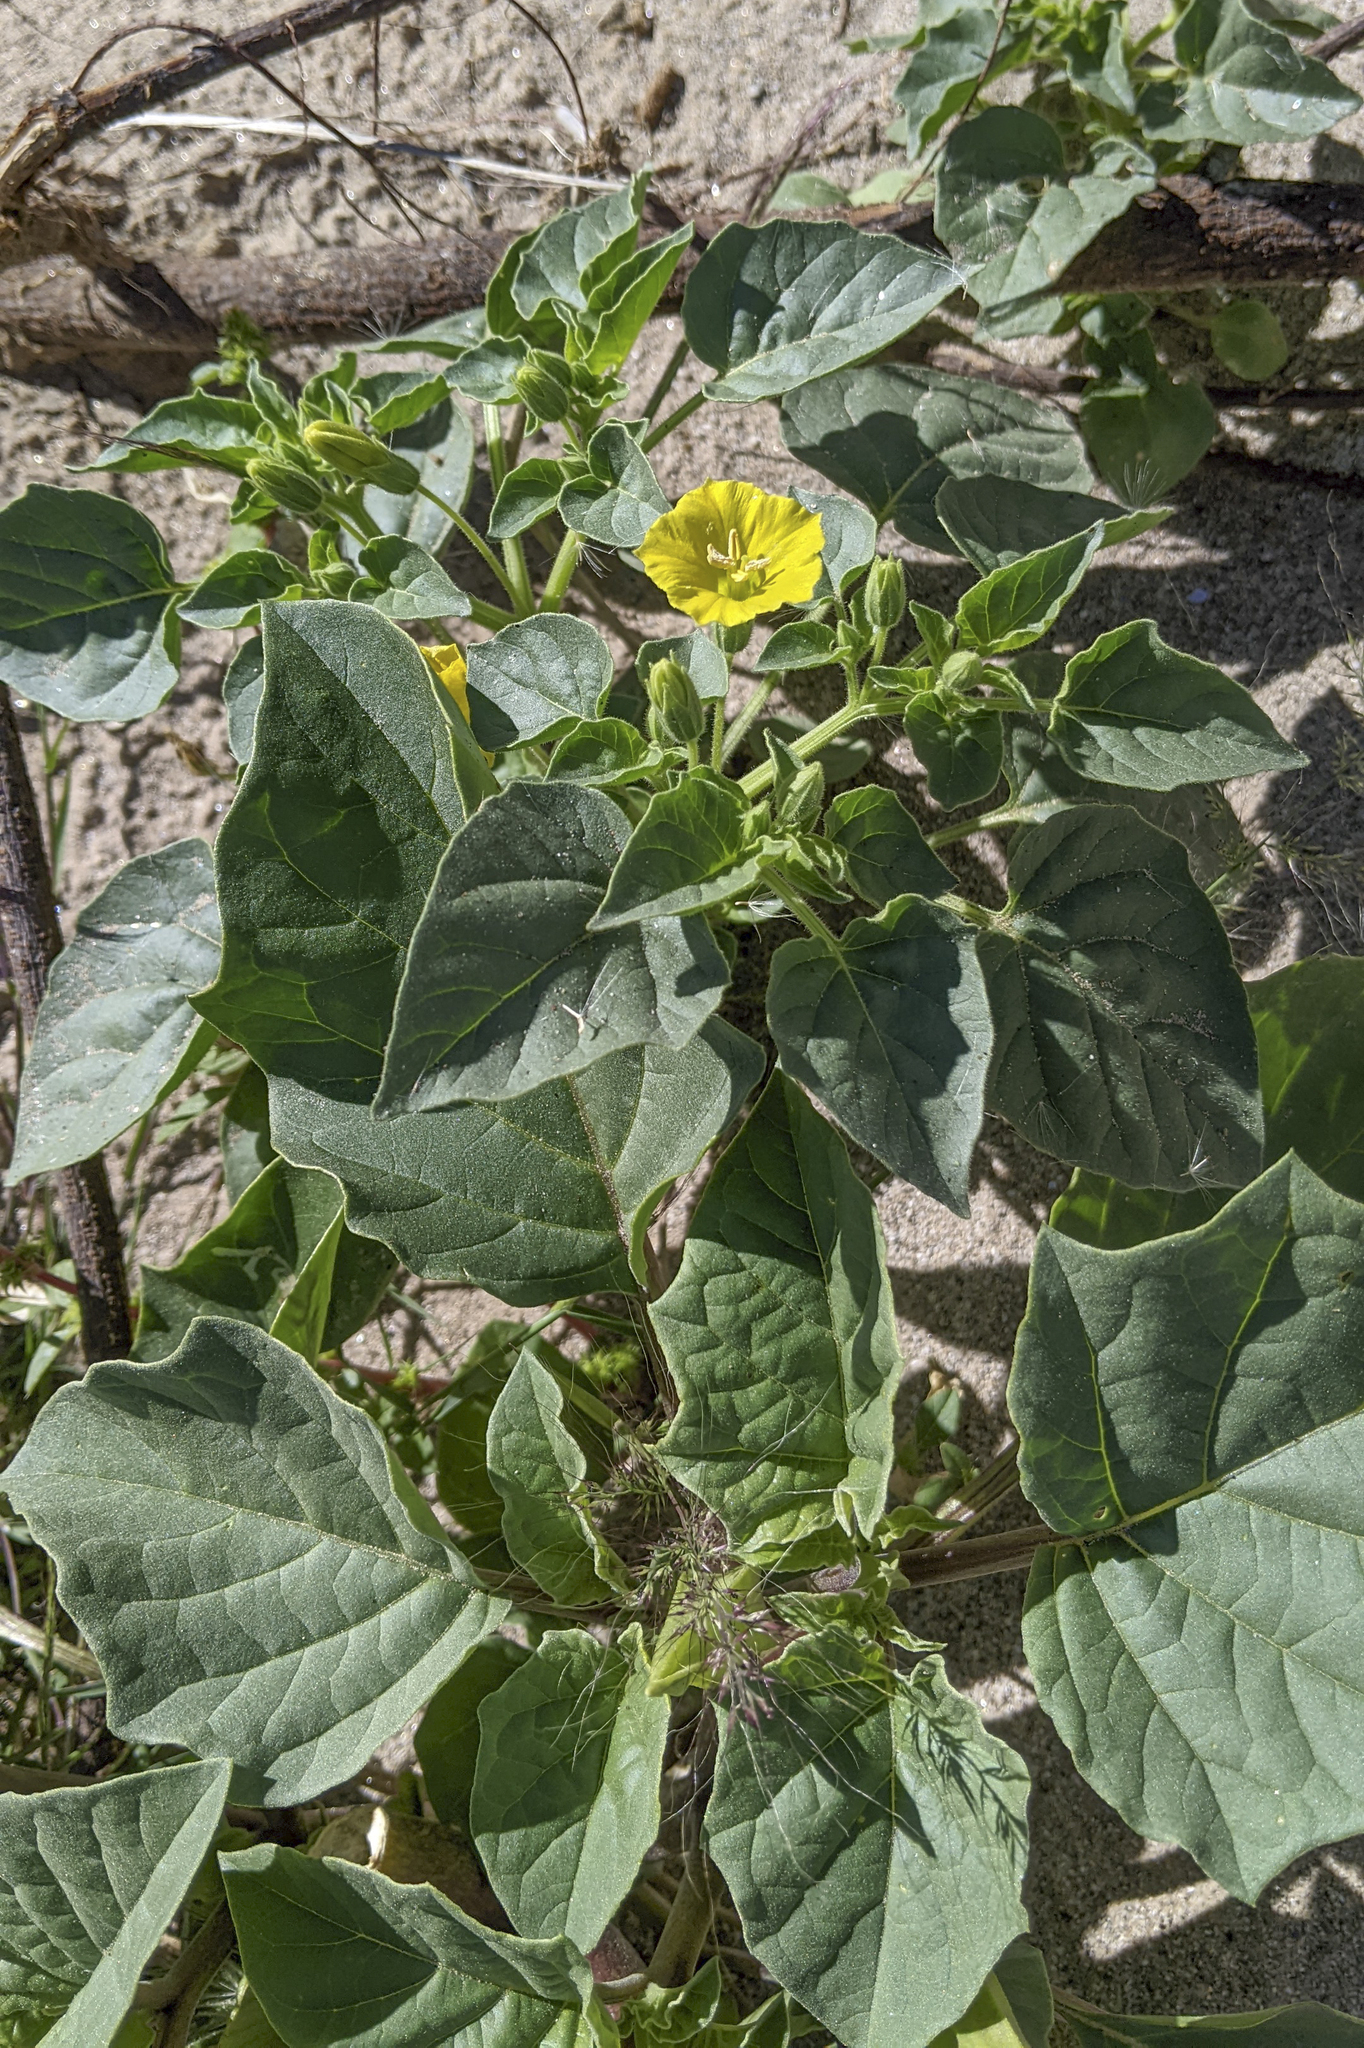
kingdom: Plantae
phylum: Tracheophyta
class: Magnoliopsida
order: Solanales
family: Solanaceae
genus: Physalis
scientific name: Physalis crassifolia
